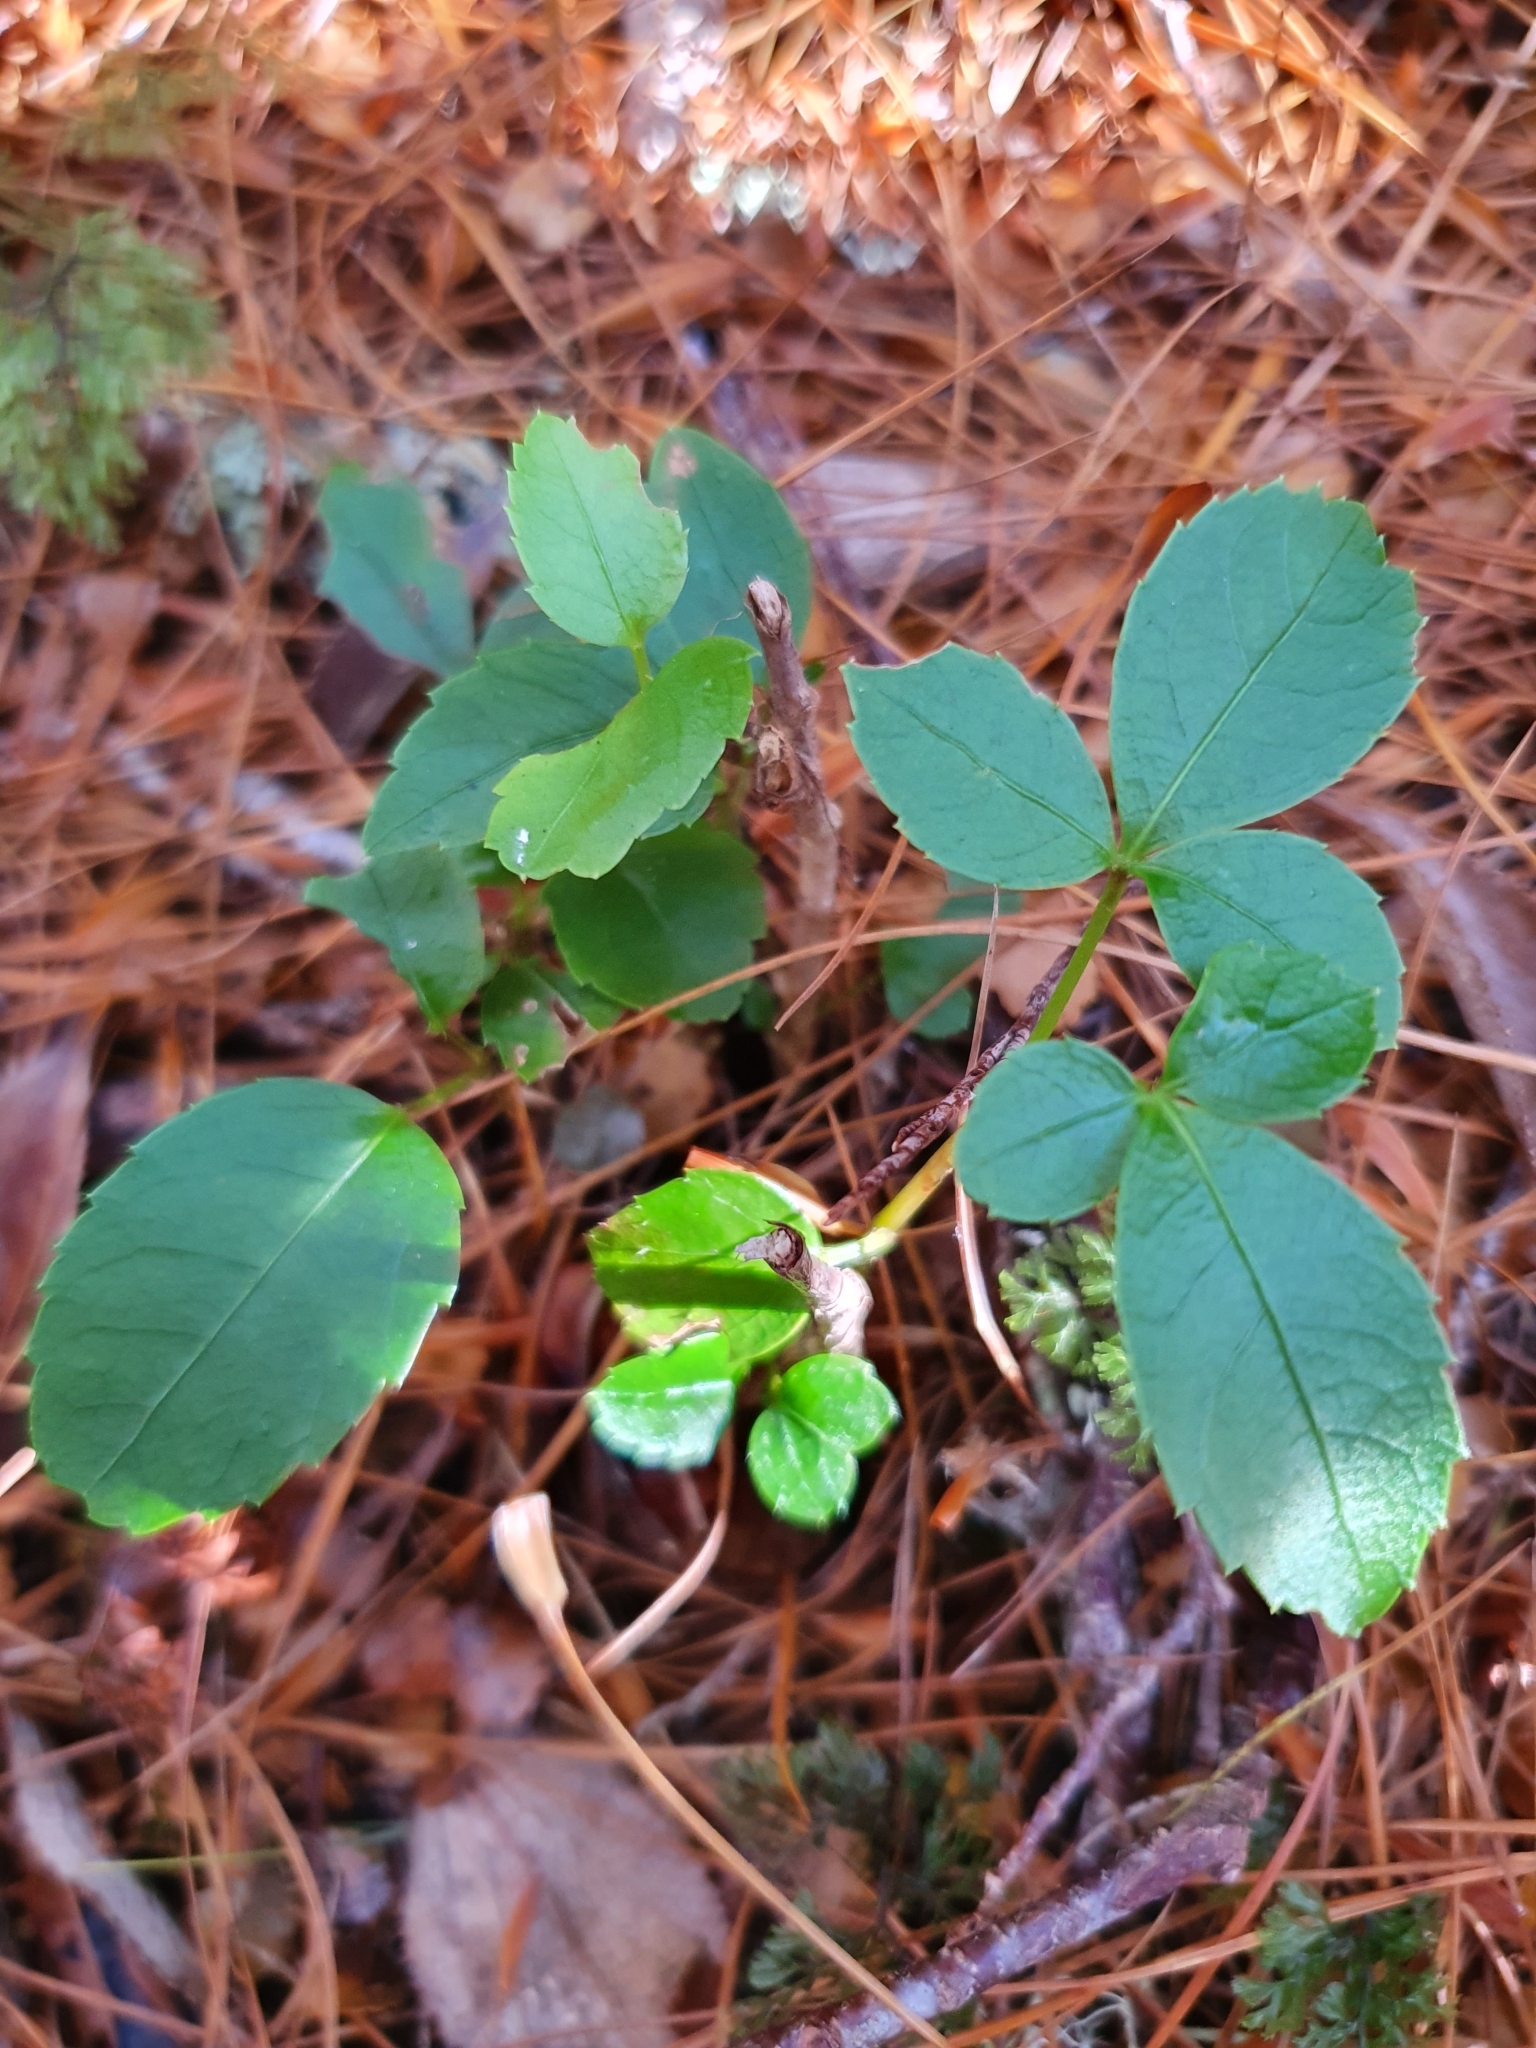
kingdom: Plantae
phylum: Tracheophyta
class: Magnoliopsida
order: Apiales
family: Araliaceae
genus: Neopanax
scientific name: Neopanax colensoi
